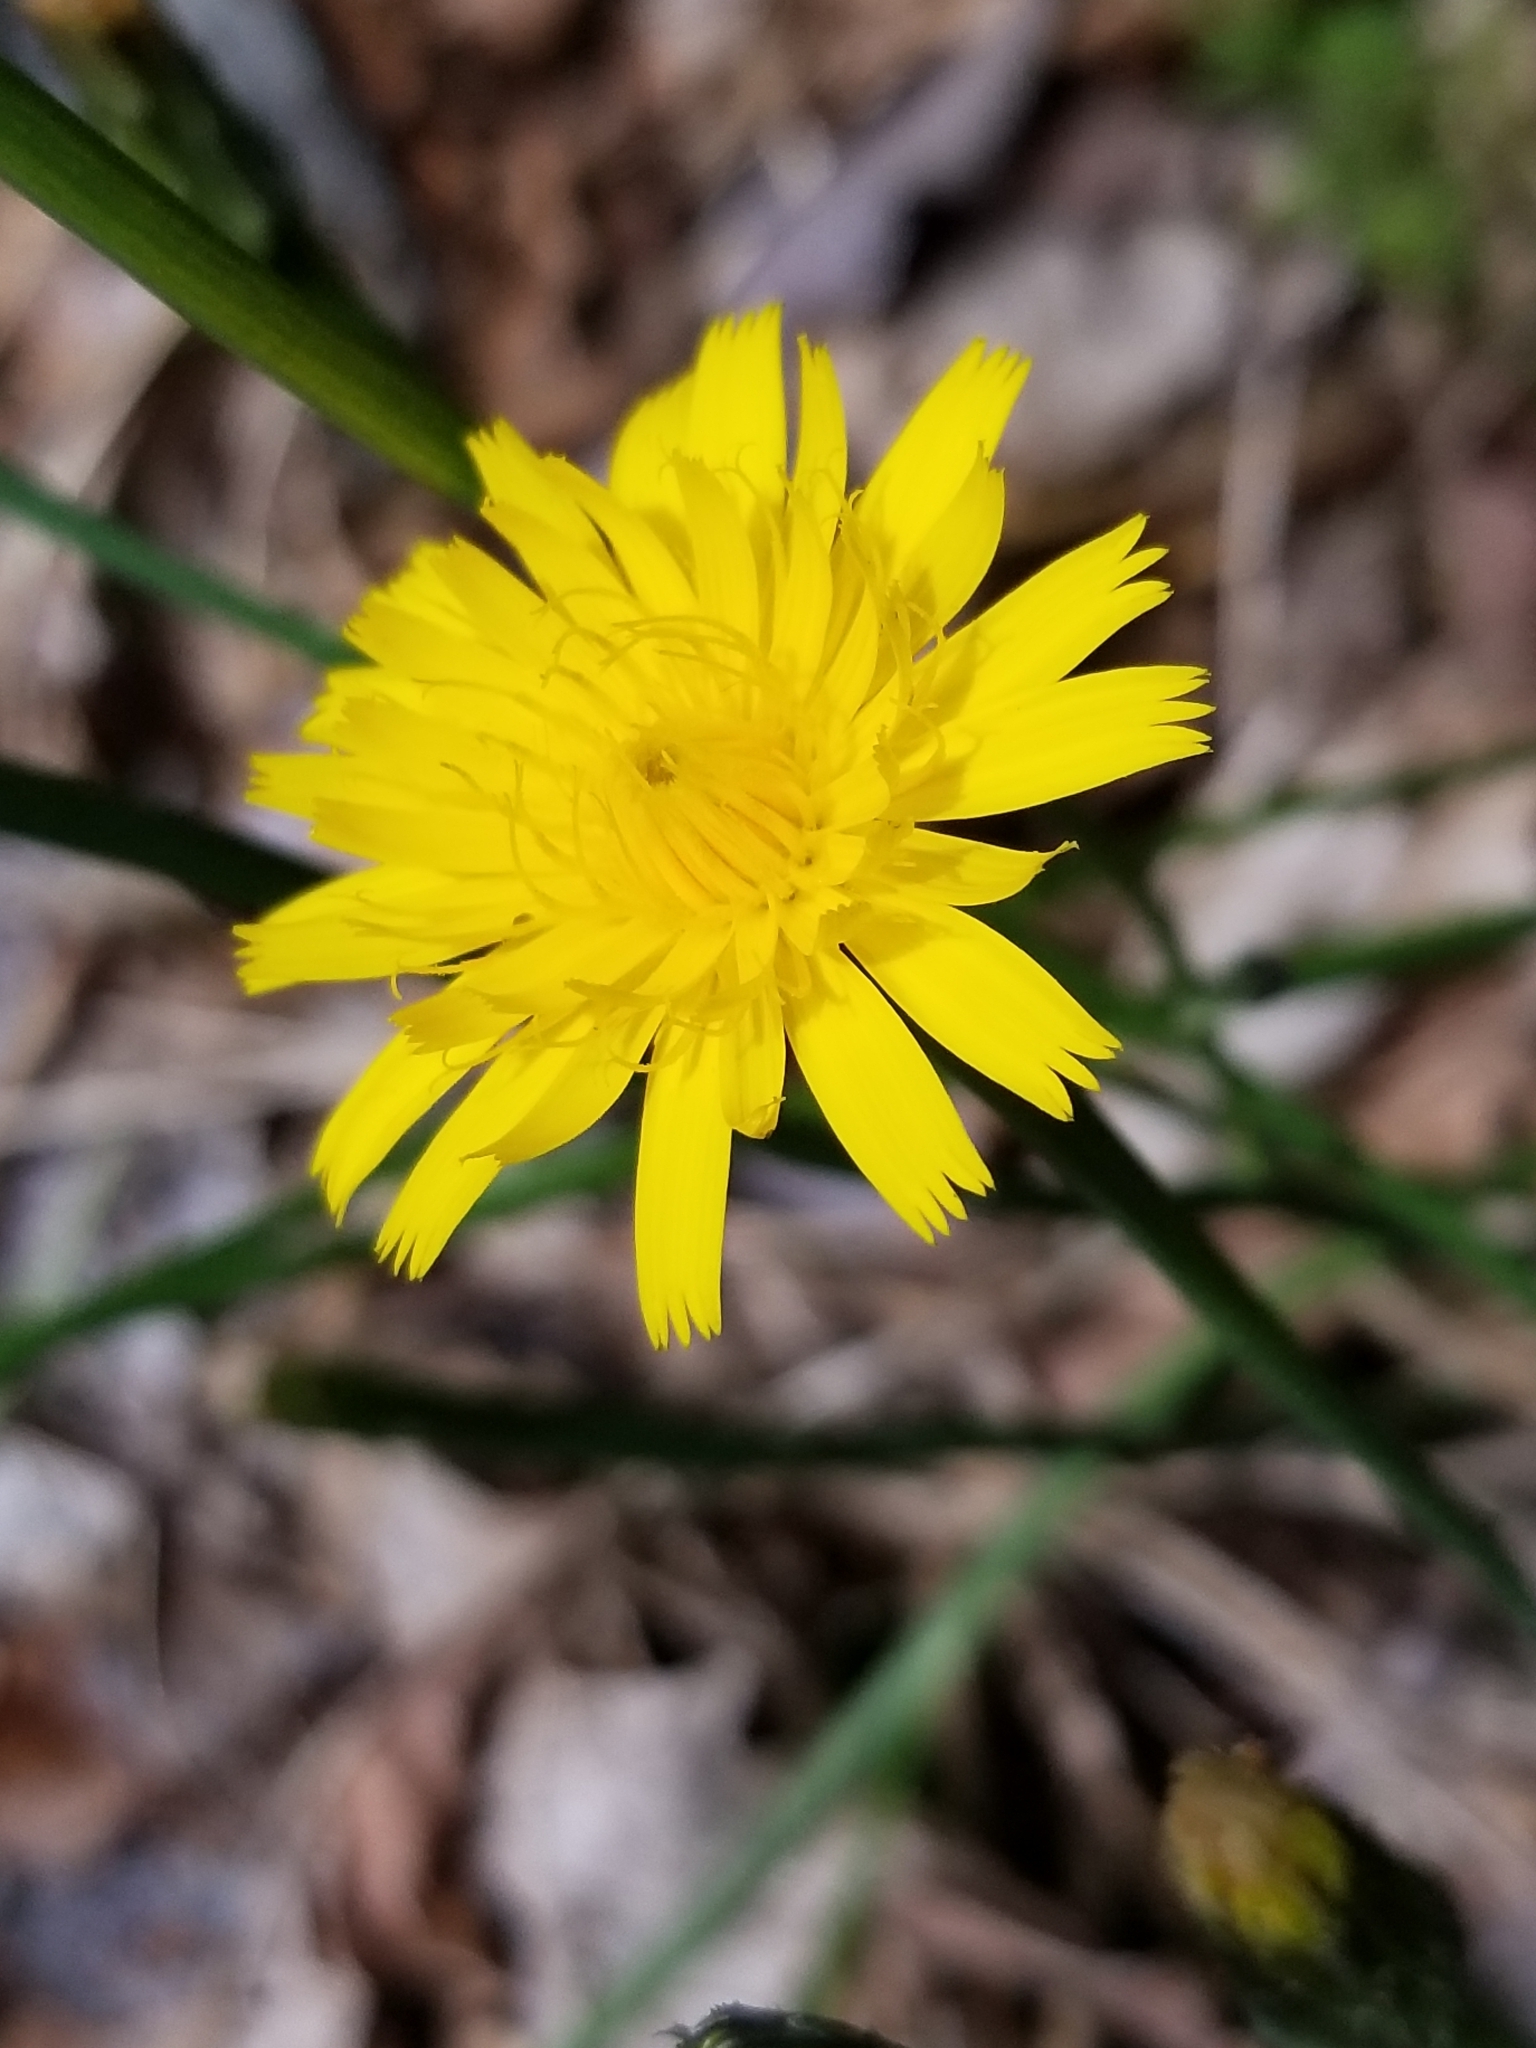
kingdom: Plantae
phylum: Tracheophyta
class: Magnoliopsida
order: Asterales
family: Asteraceae
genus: Hypochaeris
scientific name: Hypochaeris radicata
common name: Flatweed
